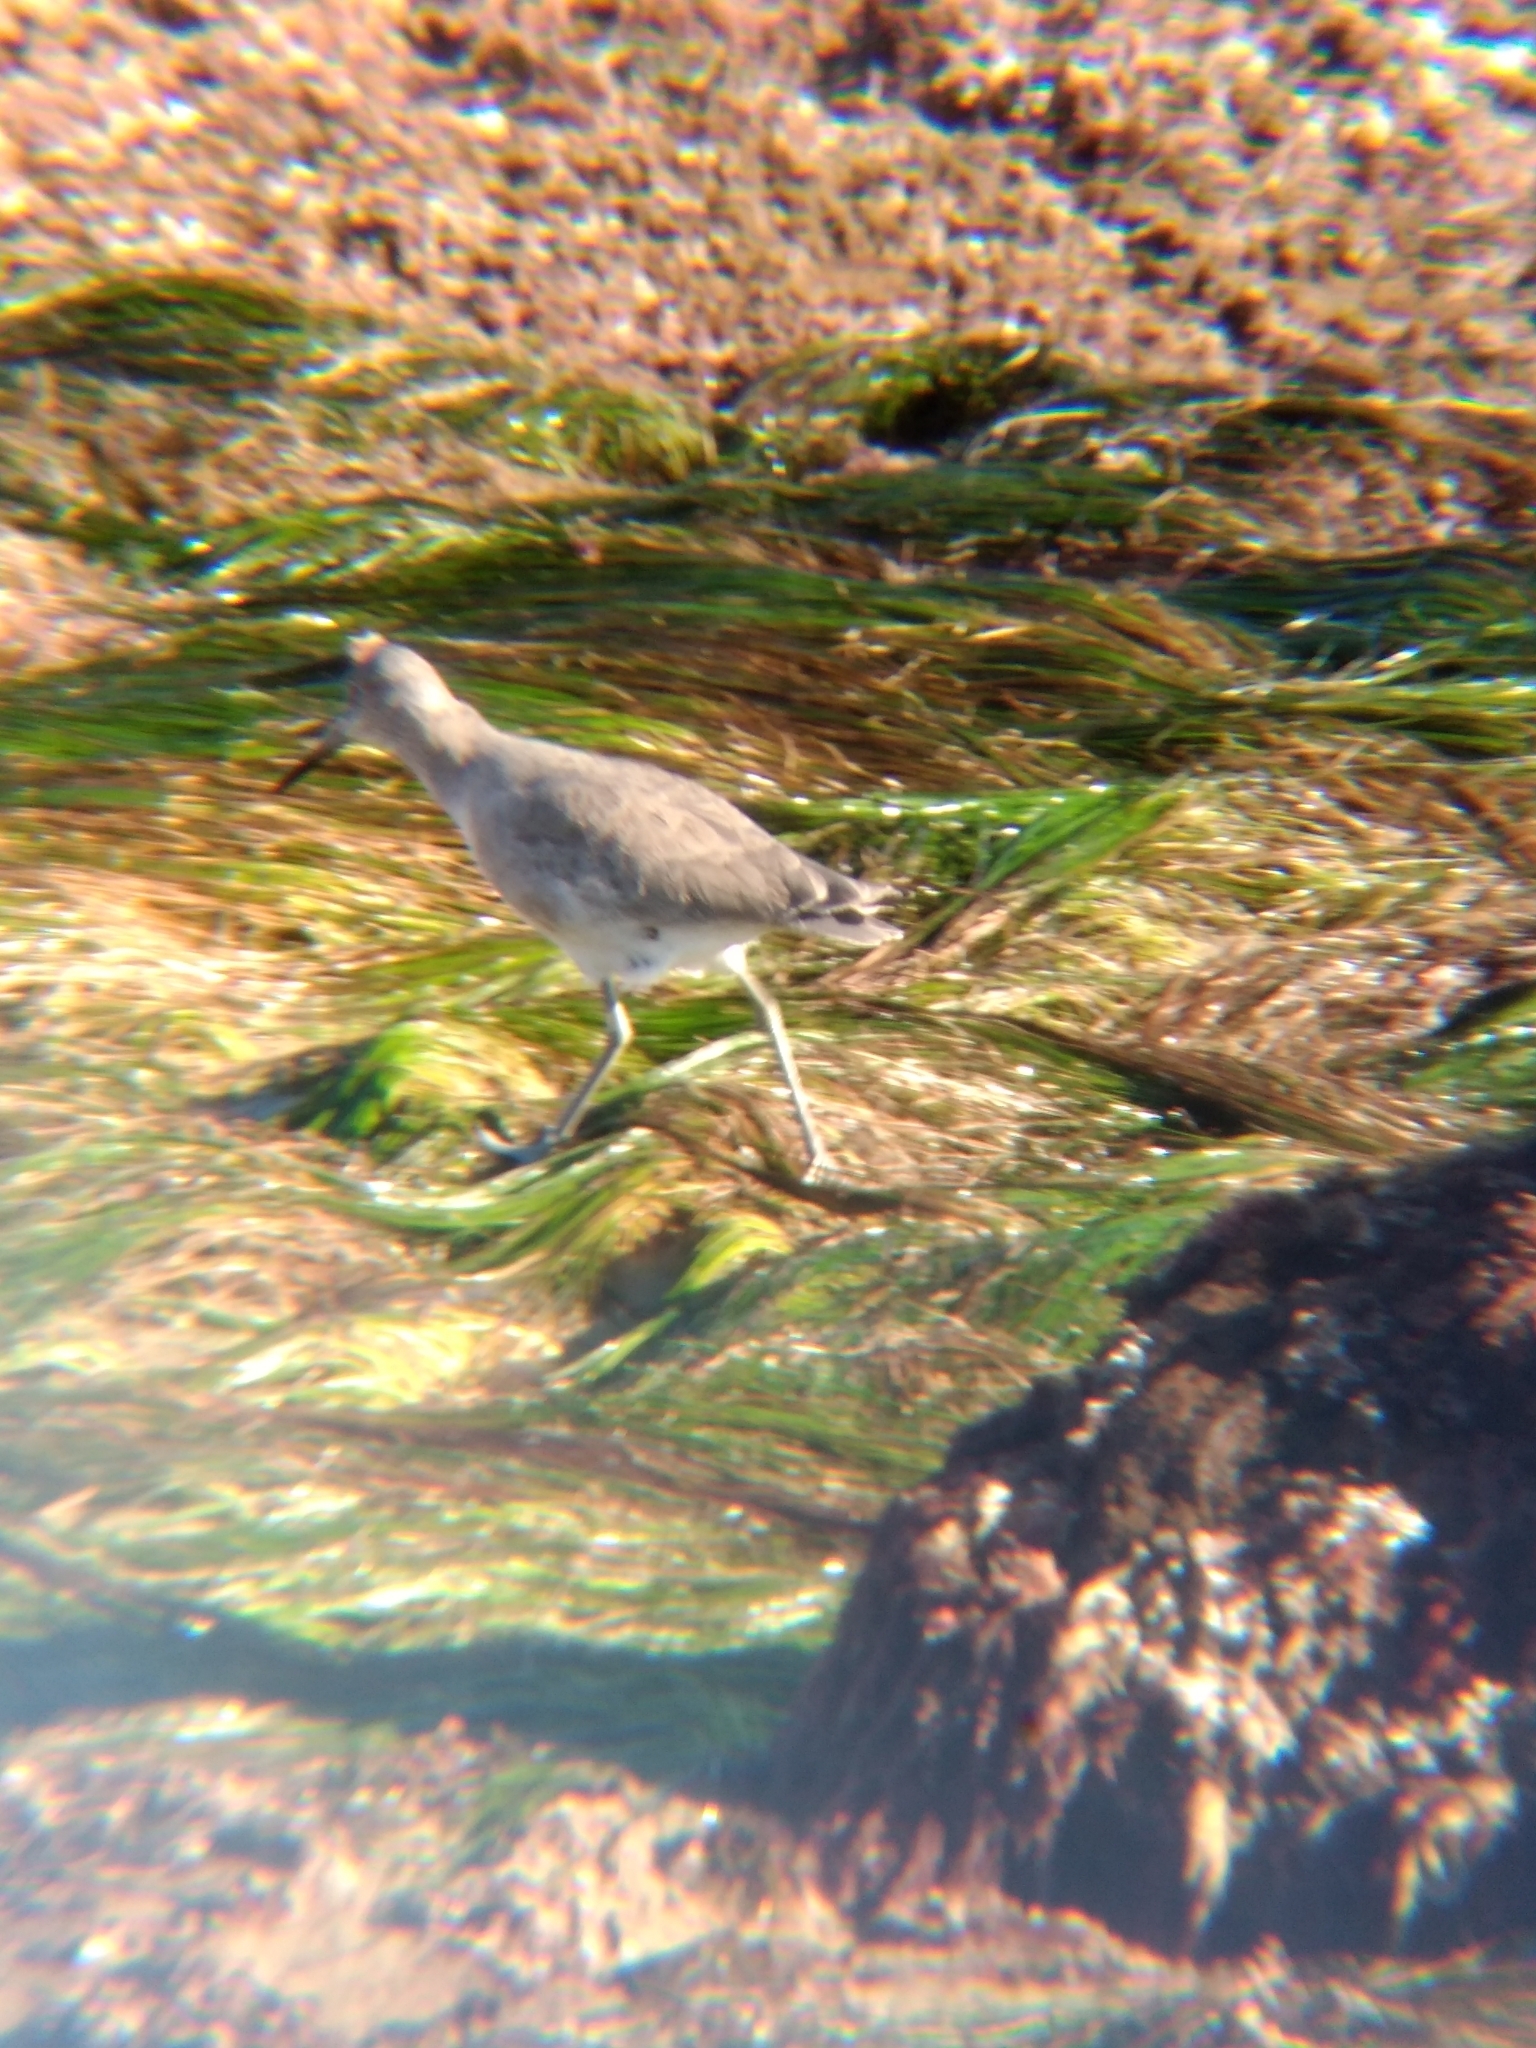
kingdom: Animalia
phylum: Chordata
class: Aves
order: Charadriiformes
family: Scolopacidae
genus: Tringa
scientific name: Tringa semipalmata
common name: Willet
